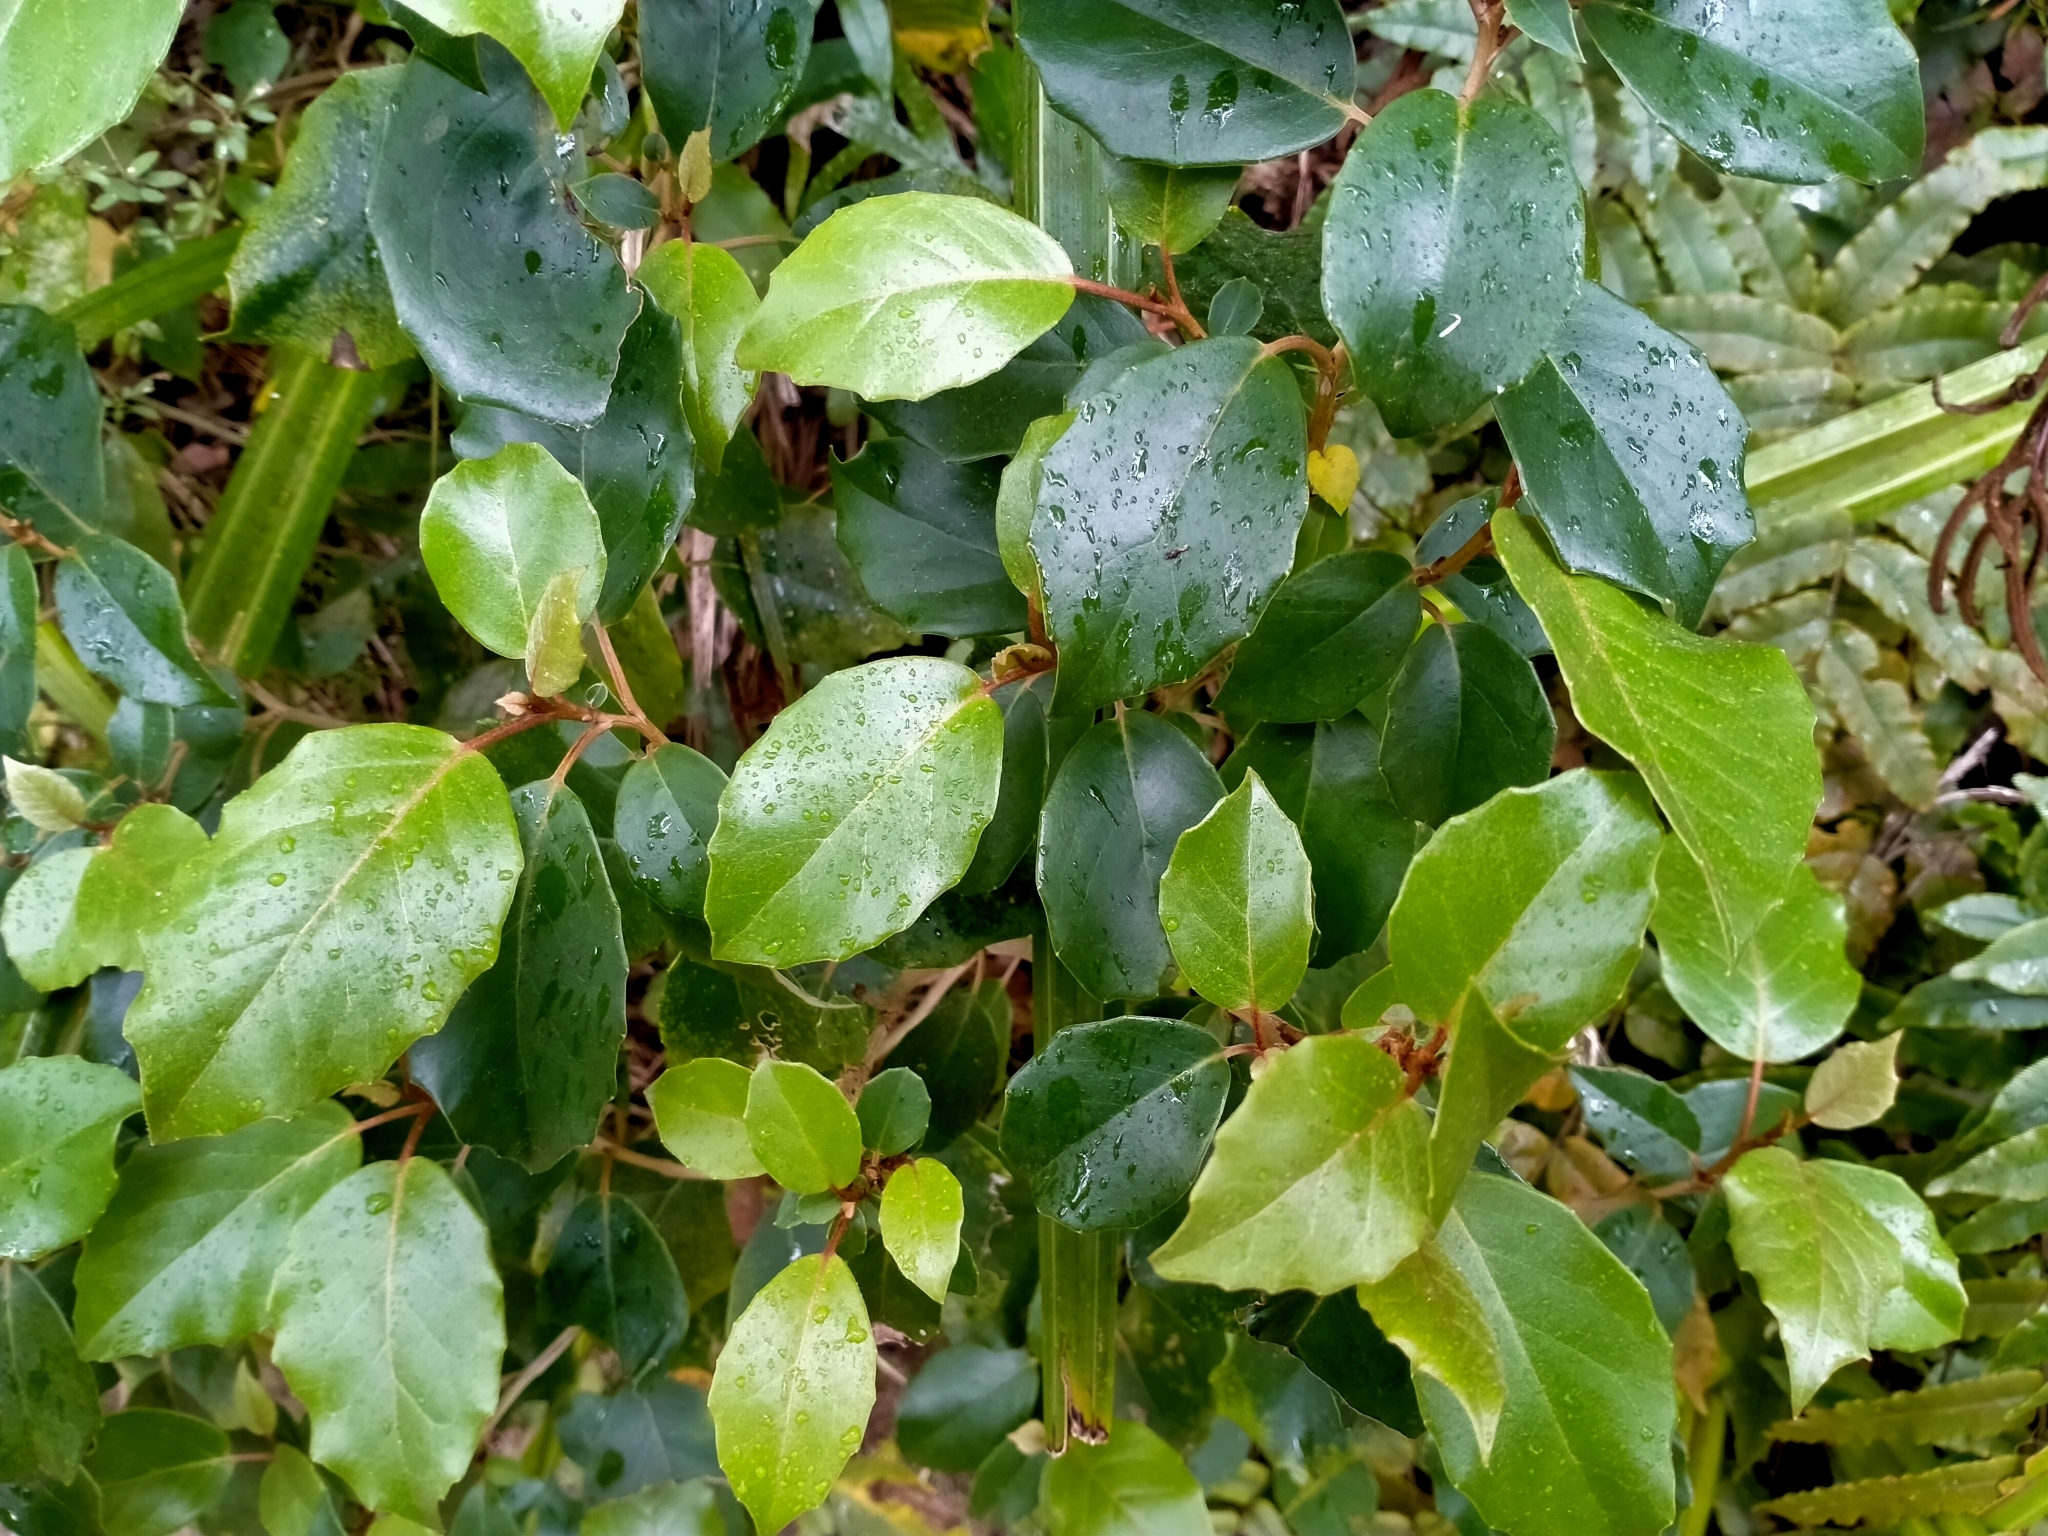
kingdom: Plantae
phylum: Tracheophyta
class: Magnoliopsida
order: Asterales
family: Asteraceae
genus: Olearia
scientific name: Olearia arborescens
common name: Glossy tree daisy
